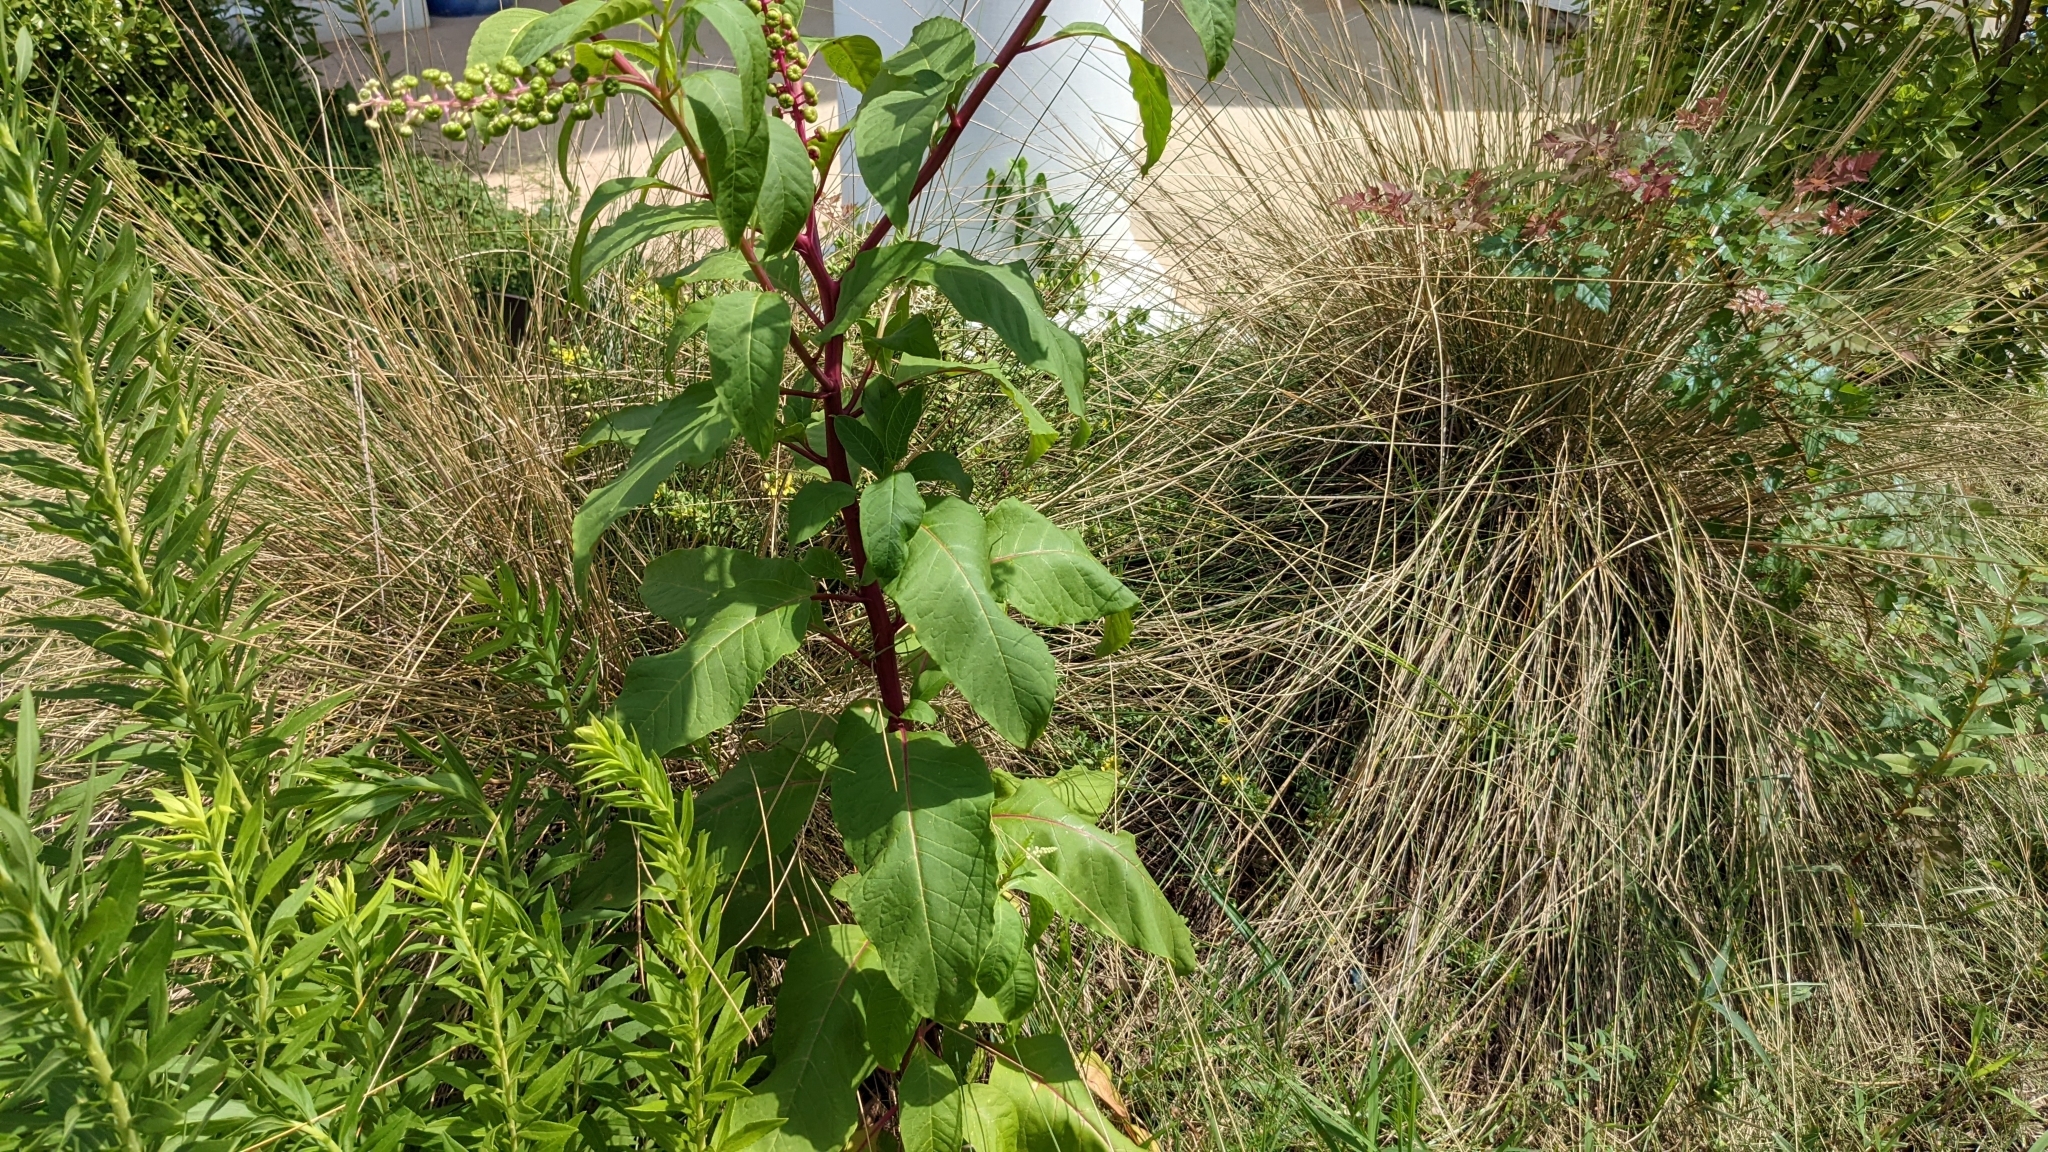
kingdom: Plantae
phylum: Tracheophyta
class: Magnoliopsida
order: Caryophyllales
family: Phytolaccaceae
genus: Phytolacca
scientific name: Phytolacca americana
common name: American pokeweed
